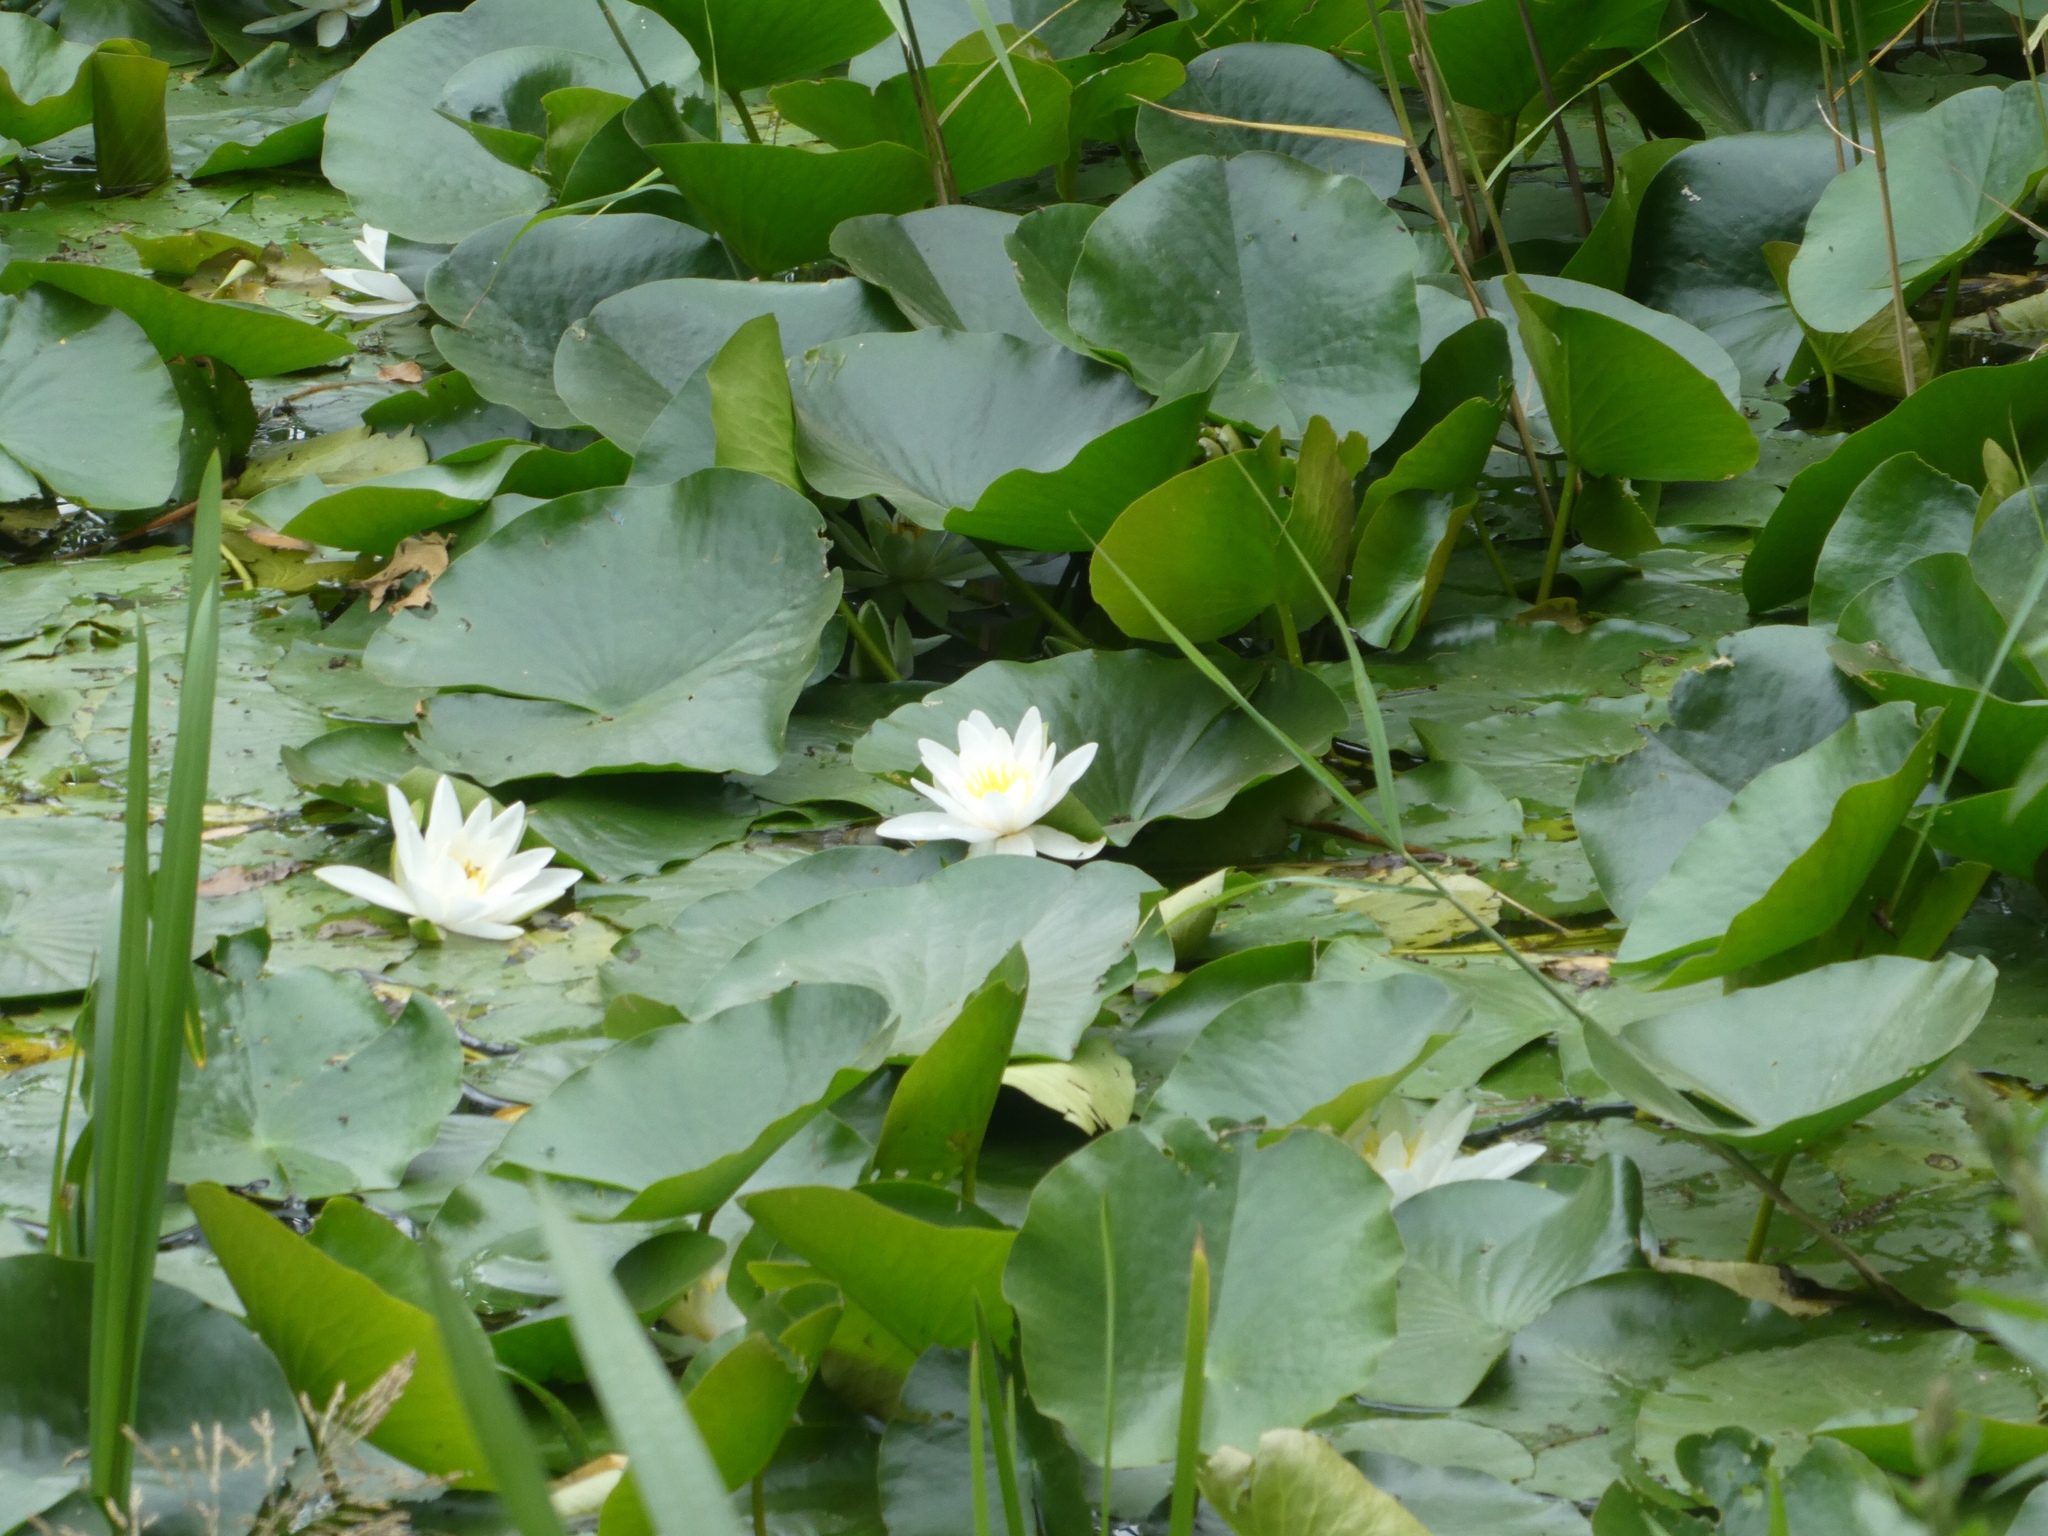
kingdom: Plantae
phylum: Tracheophyta
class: Magnoliopsida
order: Nymphaeales
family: Nymphaeaceae
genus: Nymphaea
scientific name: Nymphaea alba
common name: White water-lily
